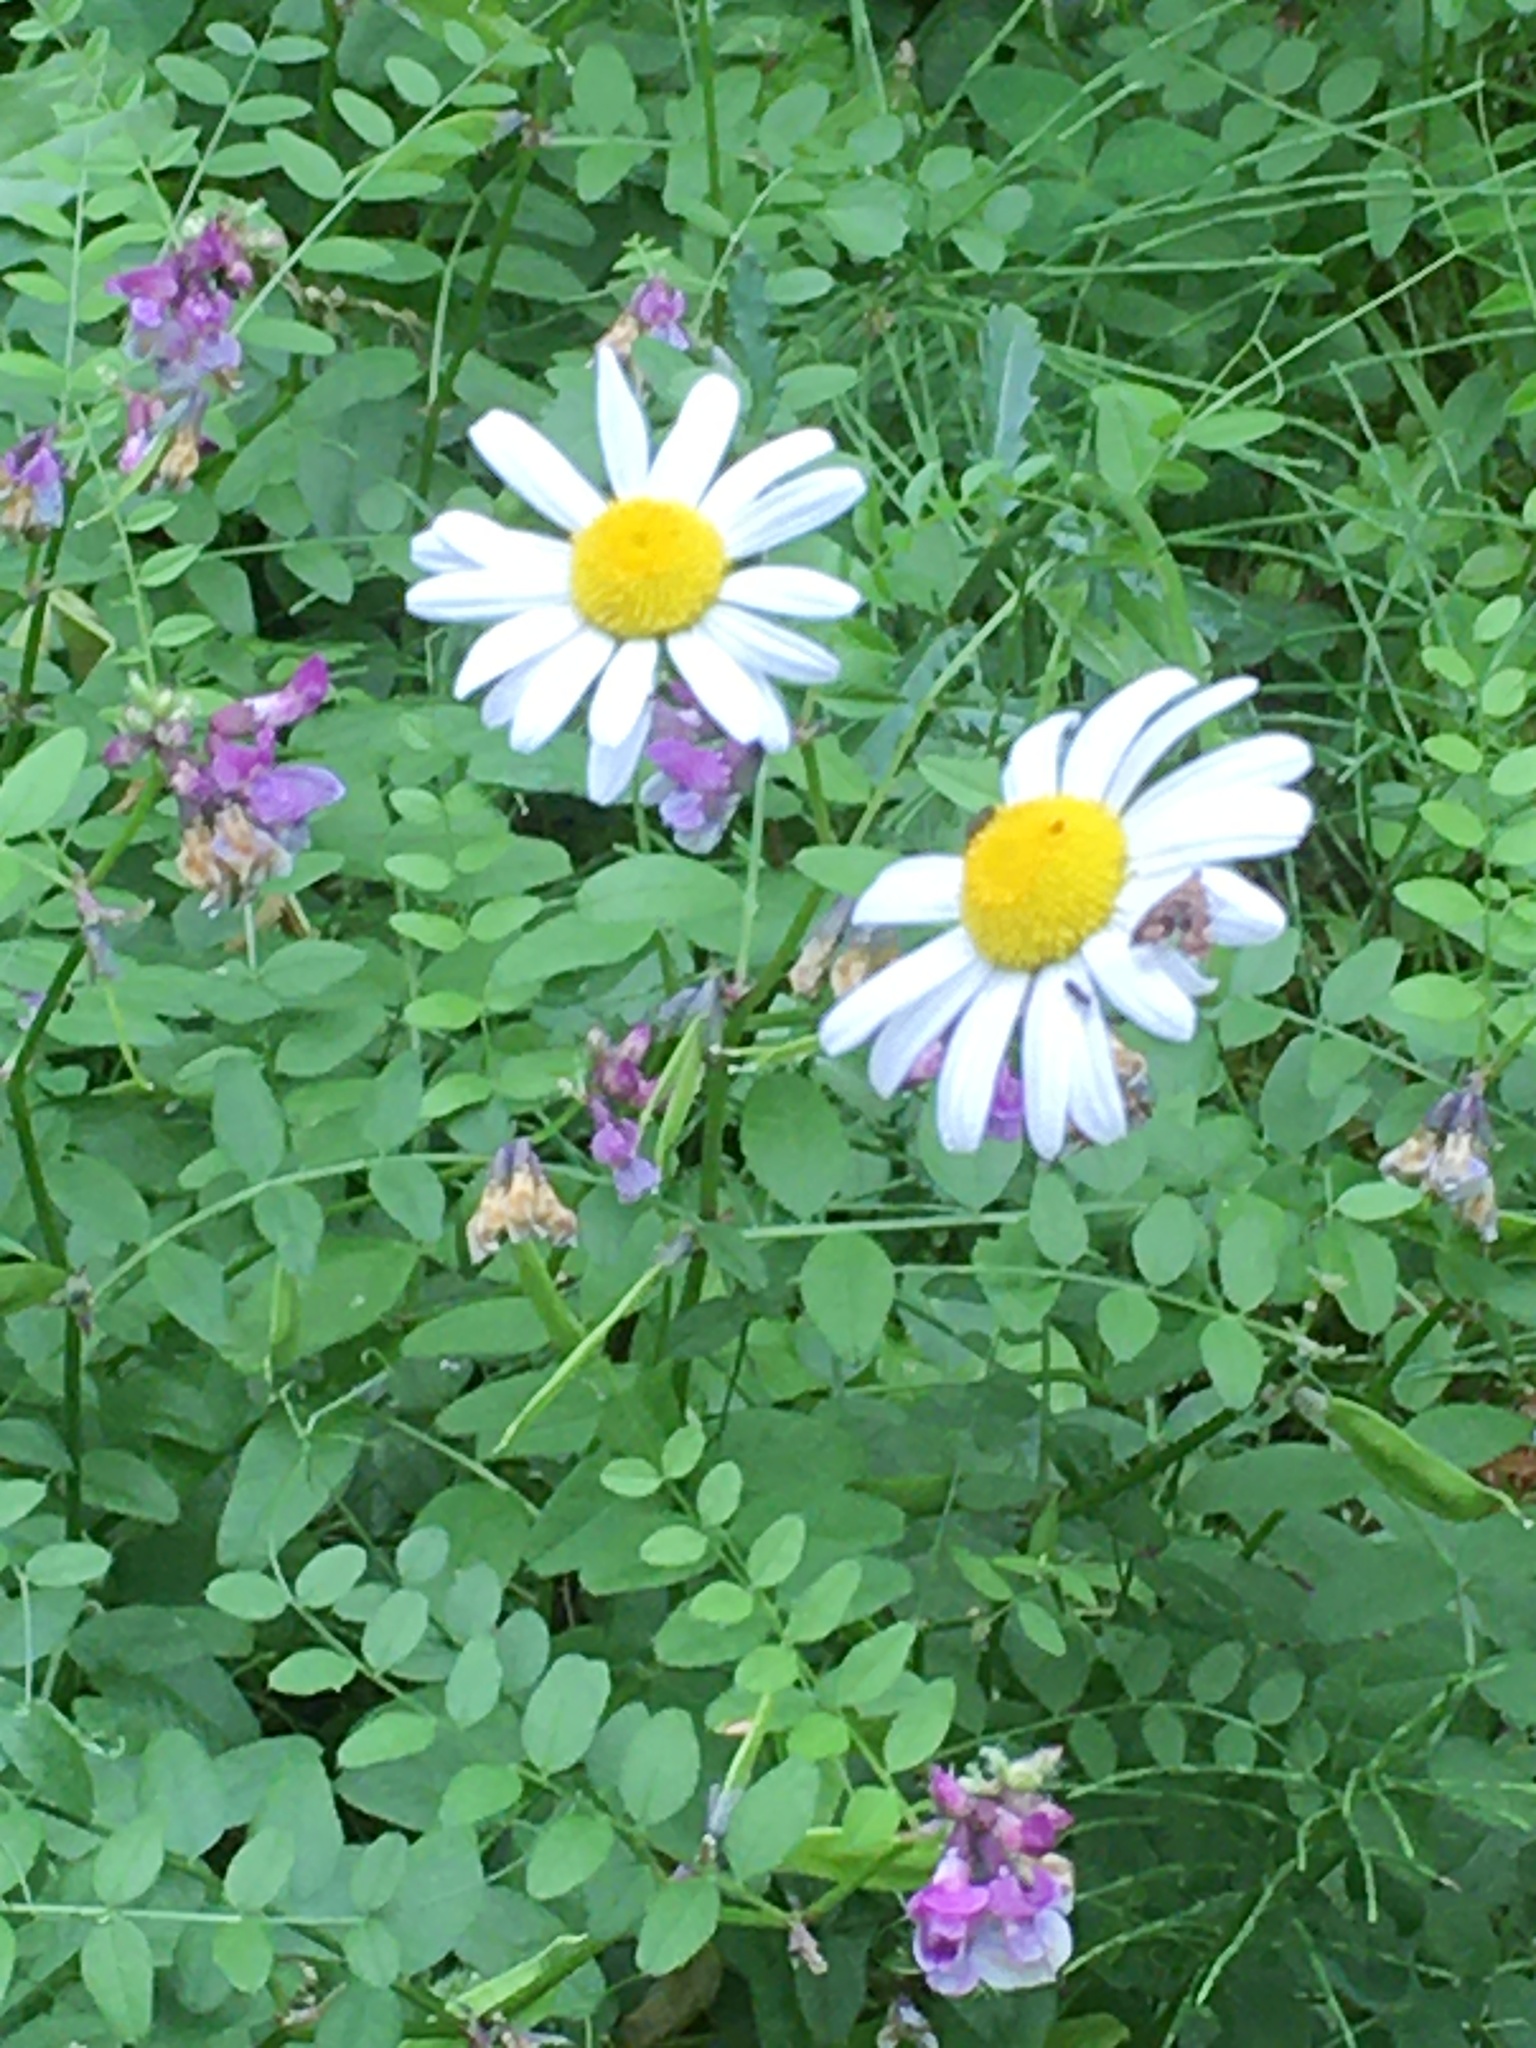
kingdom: Plantae
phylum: Tracheophyta
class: Magnoliopsida
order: Asterales
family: Asteraceae
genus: Leucanthemum
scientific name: Leucanthemum vulgare
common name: Oxeye daisy
